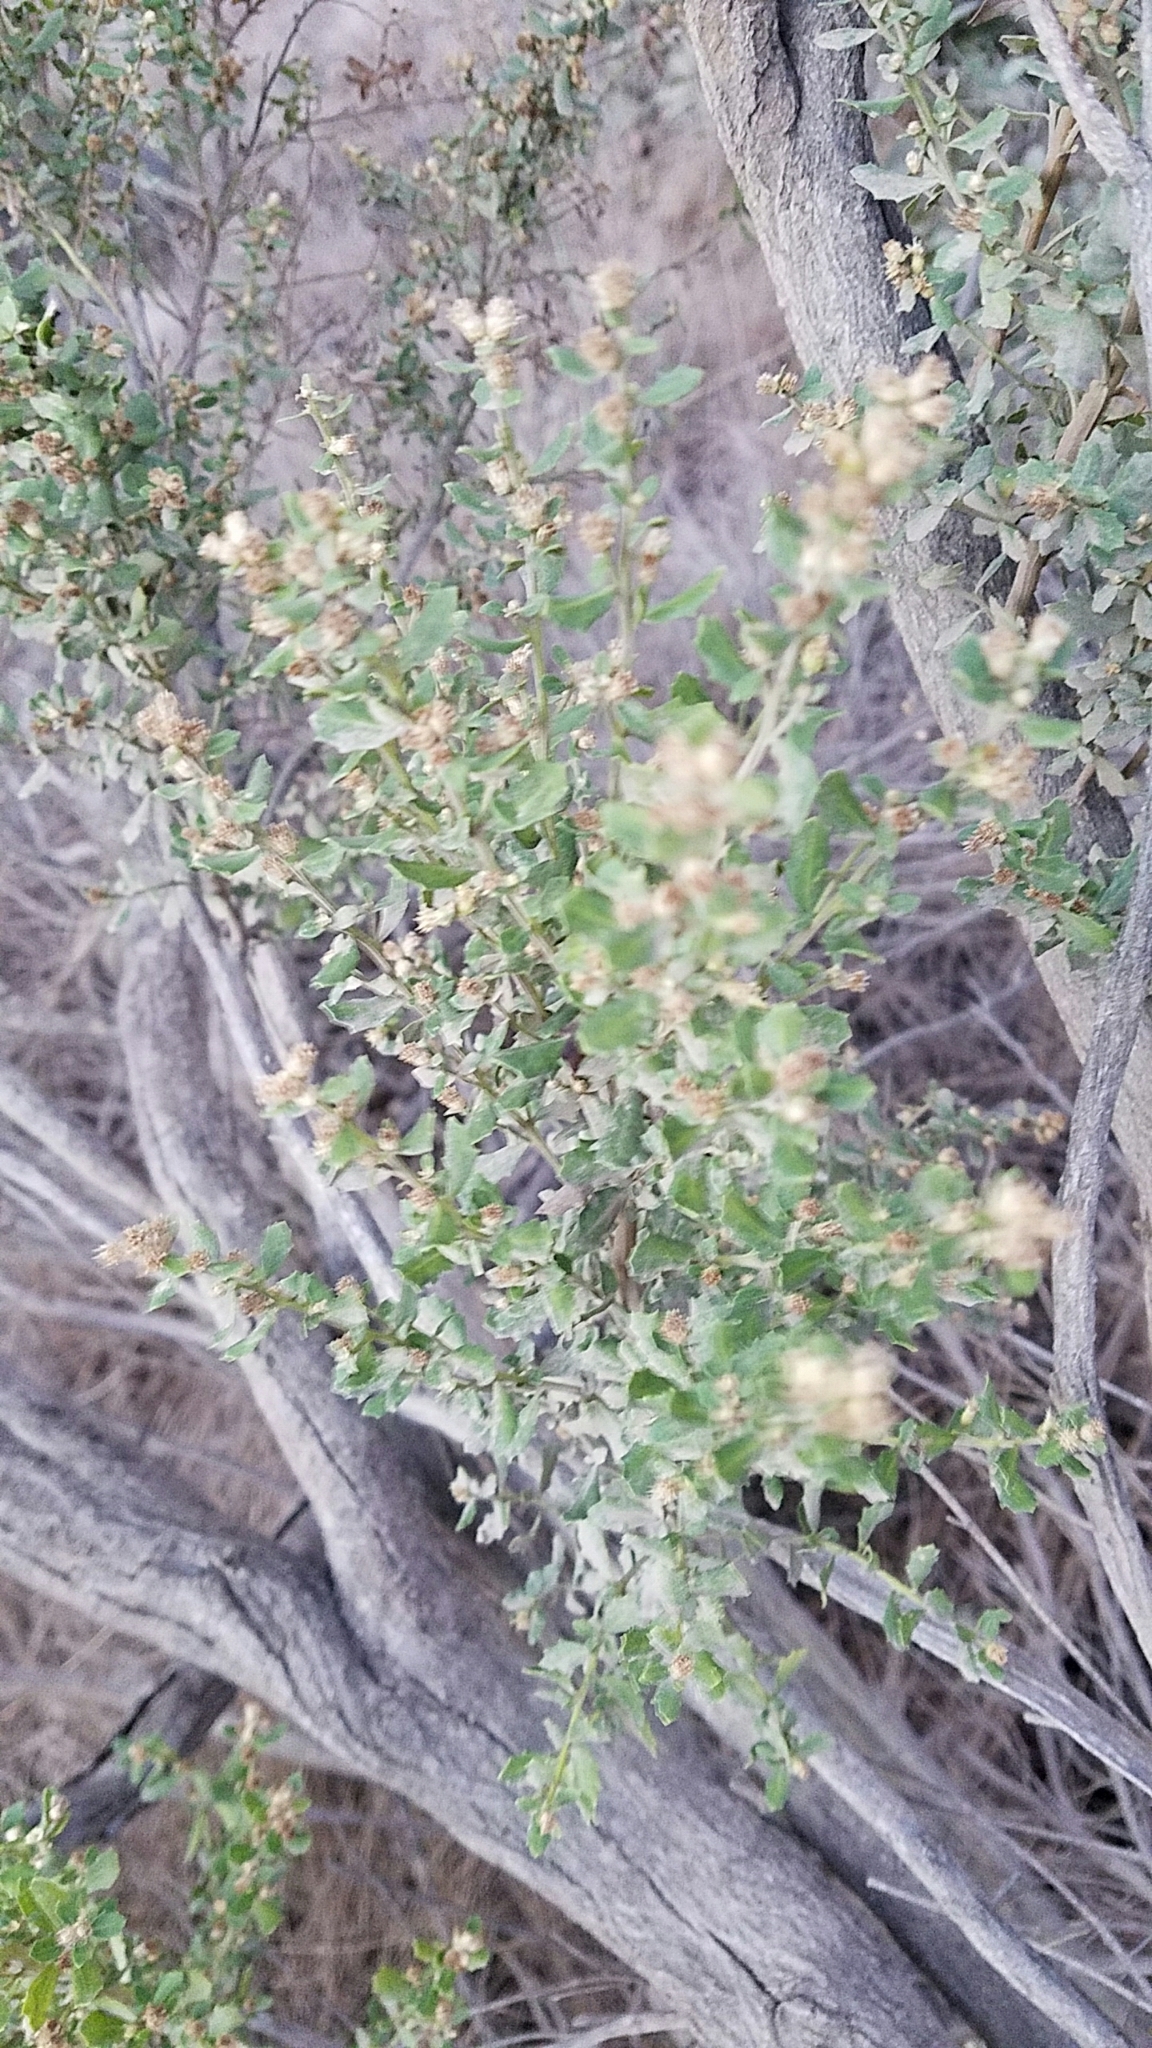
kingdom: Plantae
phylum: Tracheophyta
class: Magnoliopsida
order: Asterales
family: Asteraceae
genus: Baccharis
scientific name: Baccharis pilularis
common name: Coyotebrush
